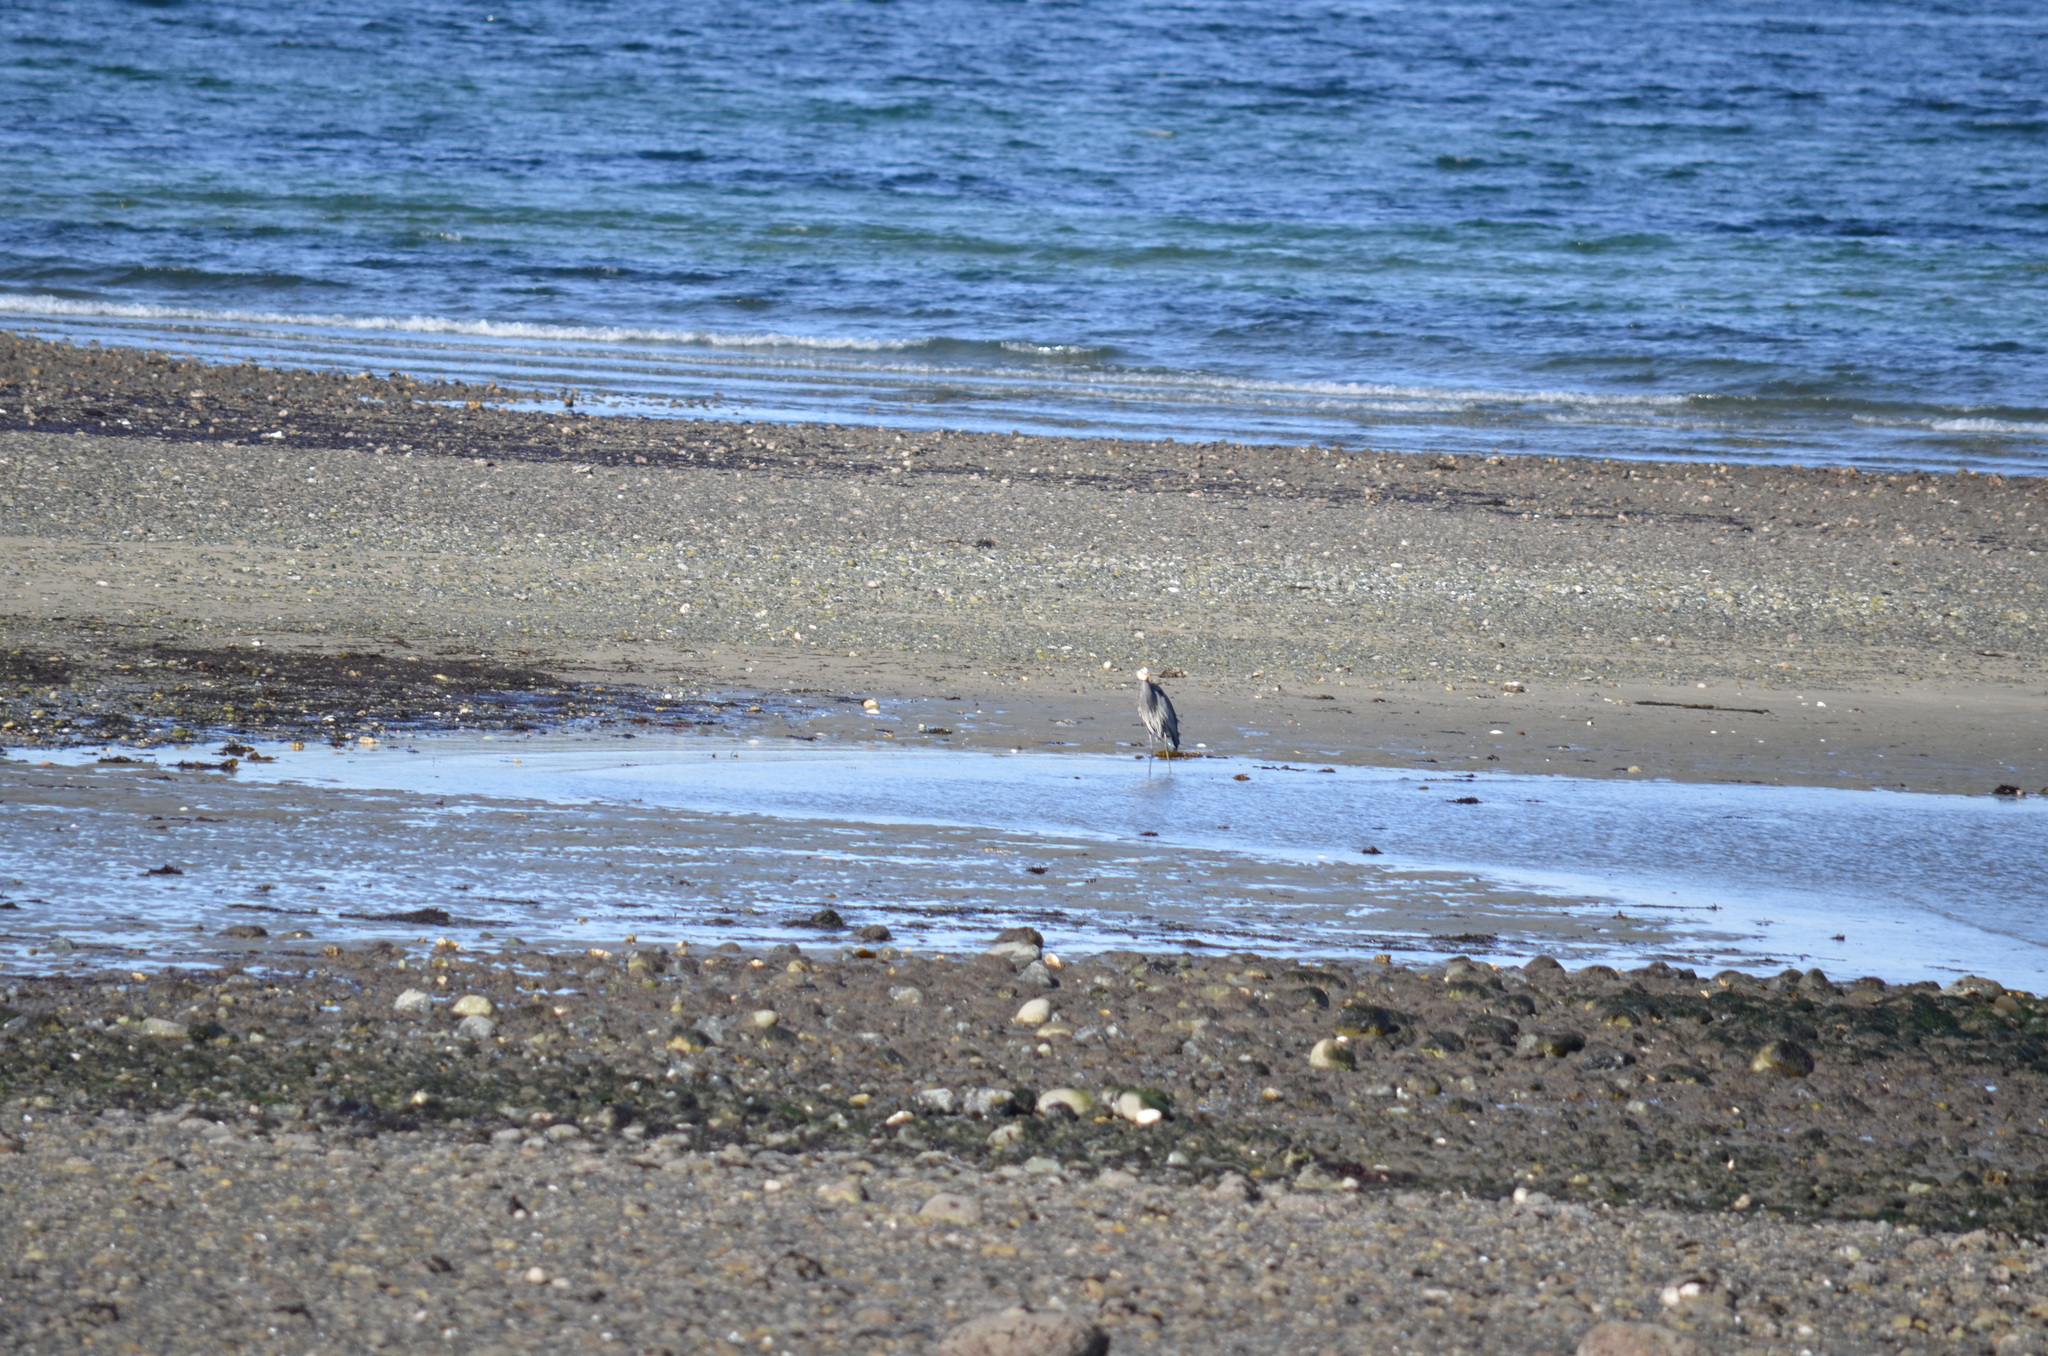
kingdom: Animalia
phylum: Chordata
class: Aves
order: Pelecaniformes
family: Ardeidae
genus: Ardea
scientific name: Ardea herodias
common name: Great blue heron
